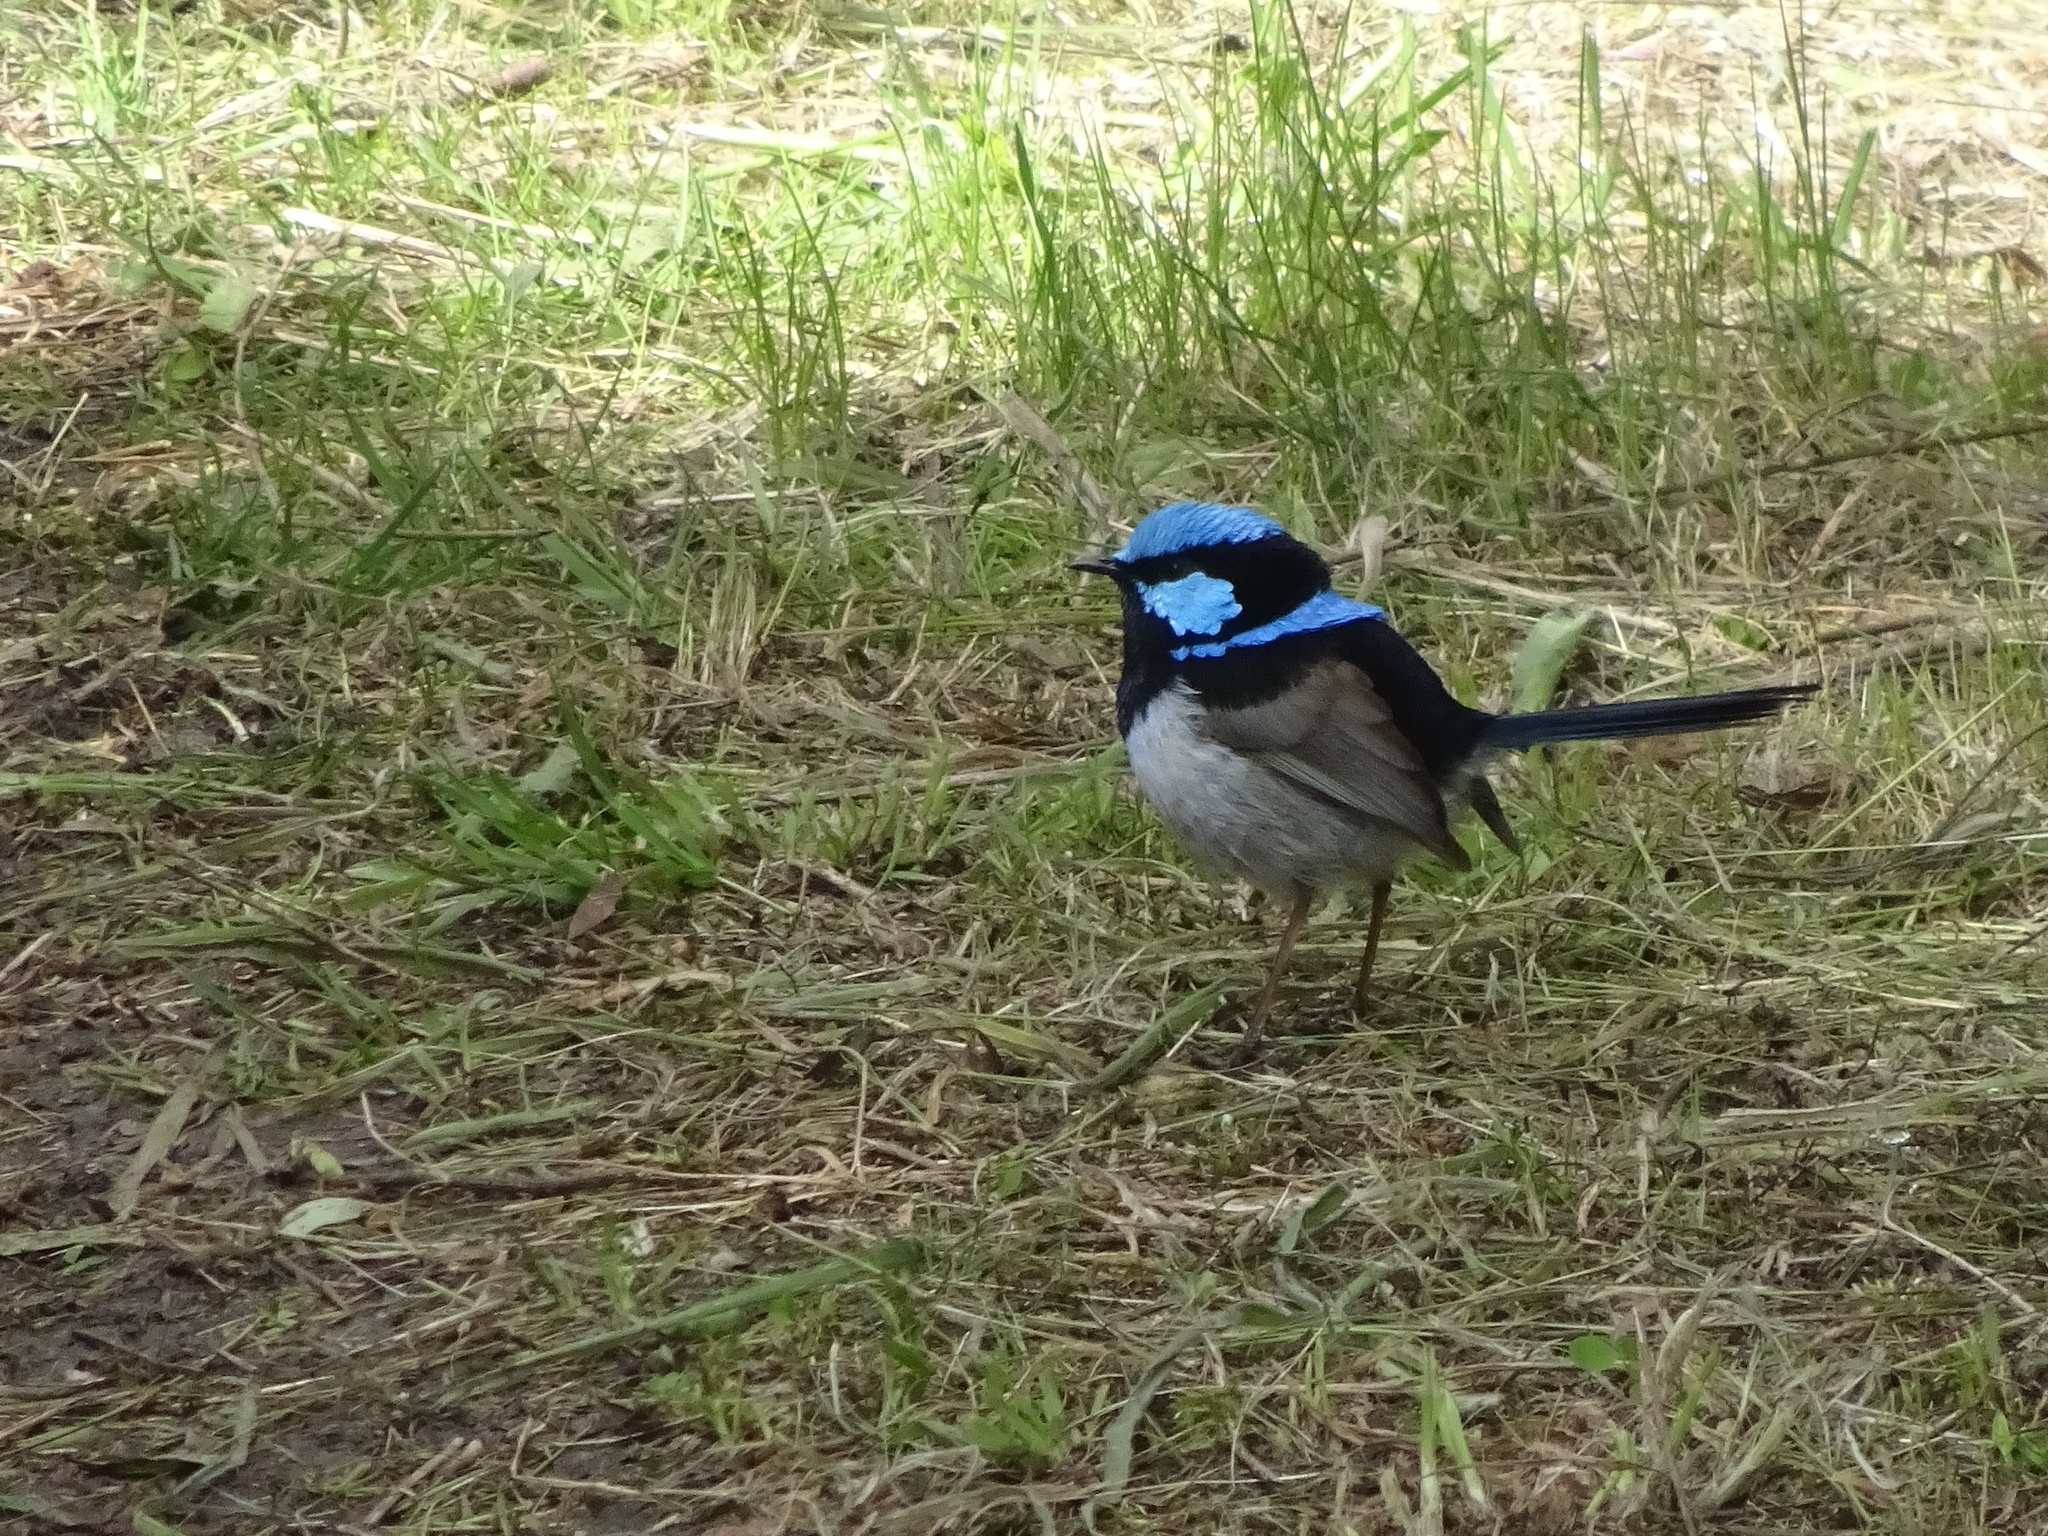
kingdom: Animalia
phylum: Chordata
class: Aves
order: Passeriformes
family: Maluridae
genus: Malurus
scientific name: Malurus cyaneus
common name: Superb fairywren
